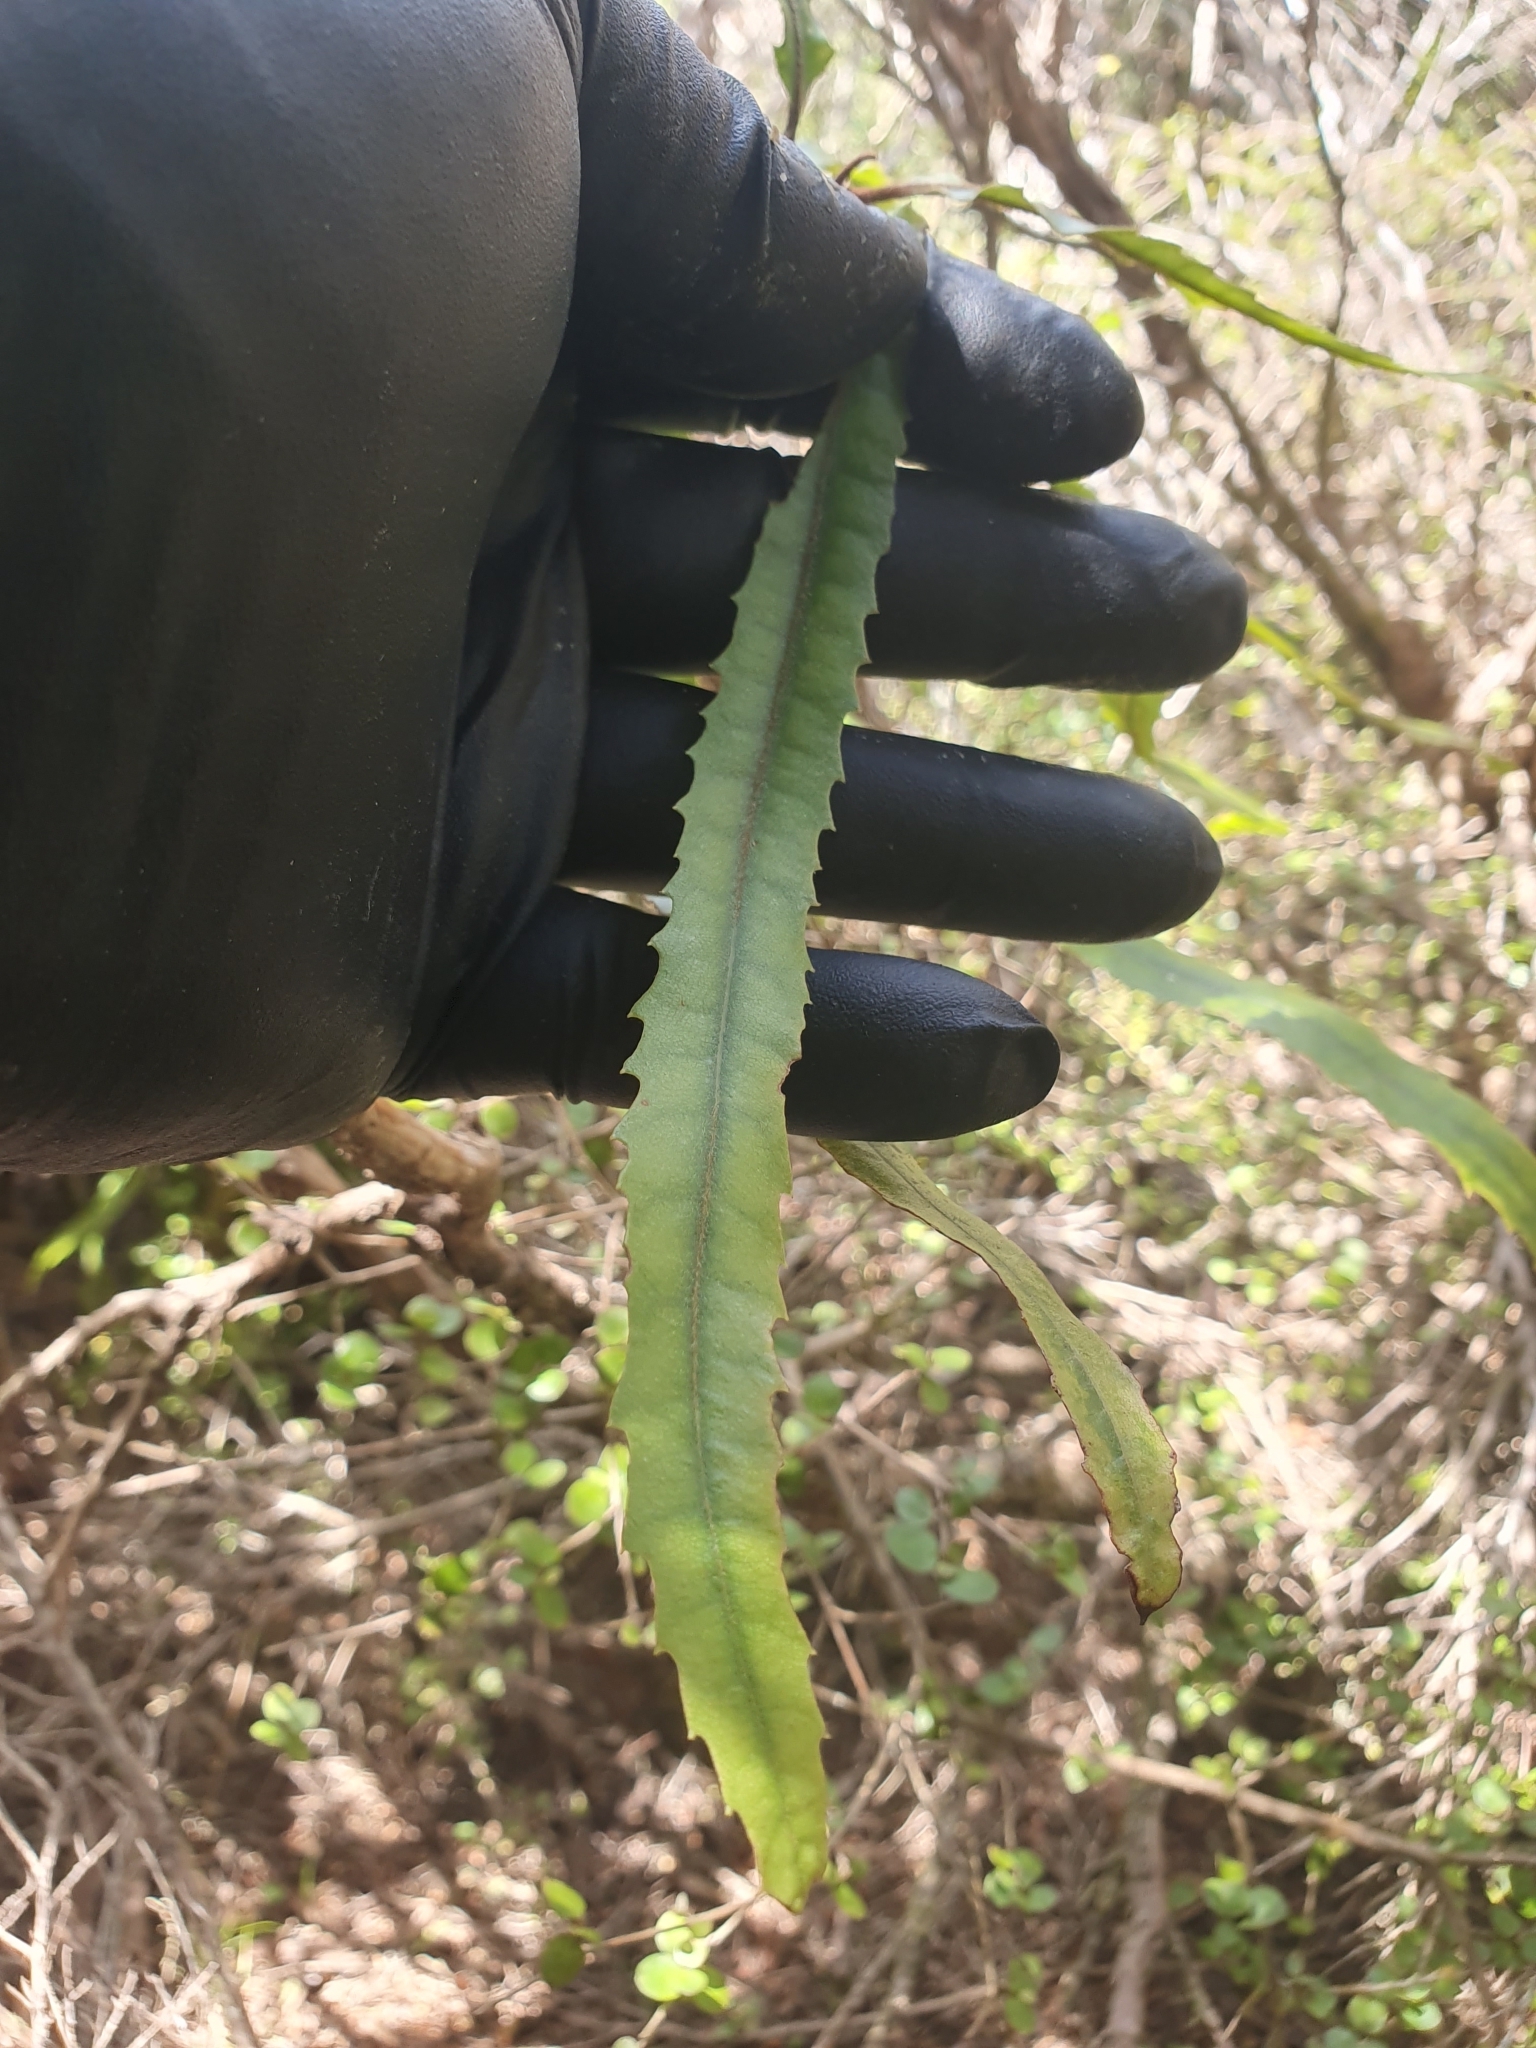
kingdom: Plantae
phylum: Tracheophyta
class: Magnoliopsida
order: Proteales
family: Proteaceae
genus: Knightia
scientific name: Knightia excelsa
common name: New zealand-honeysuckle
